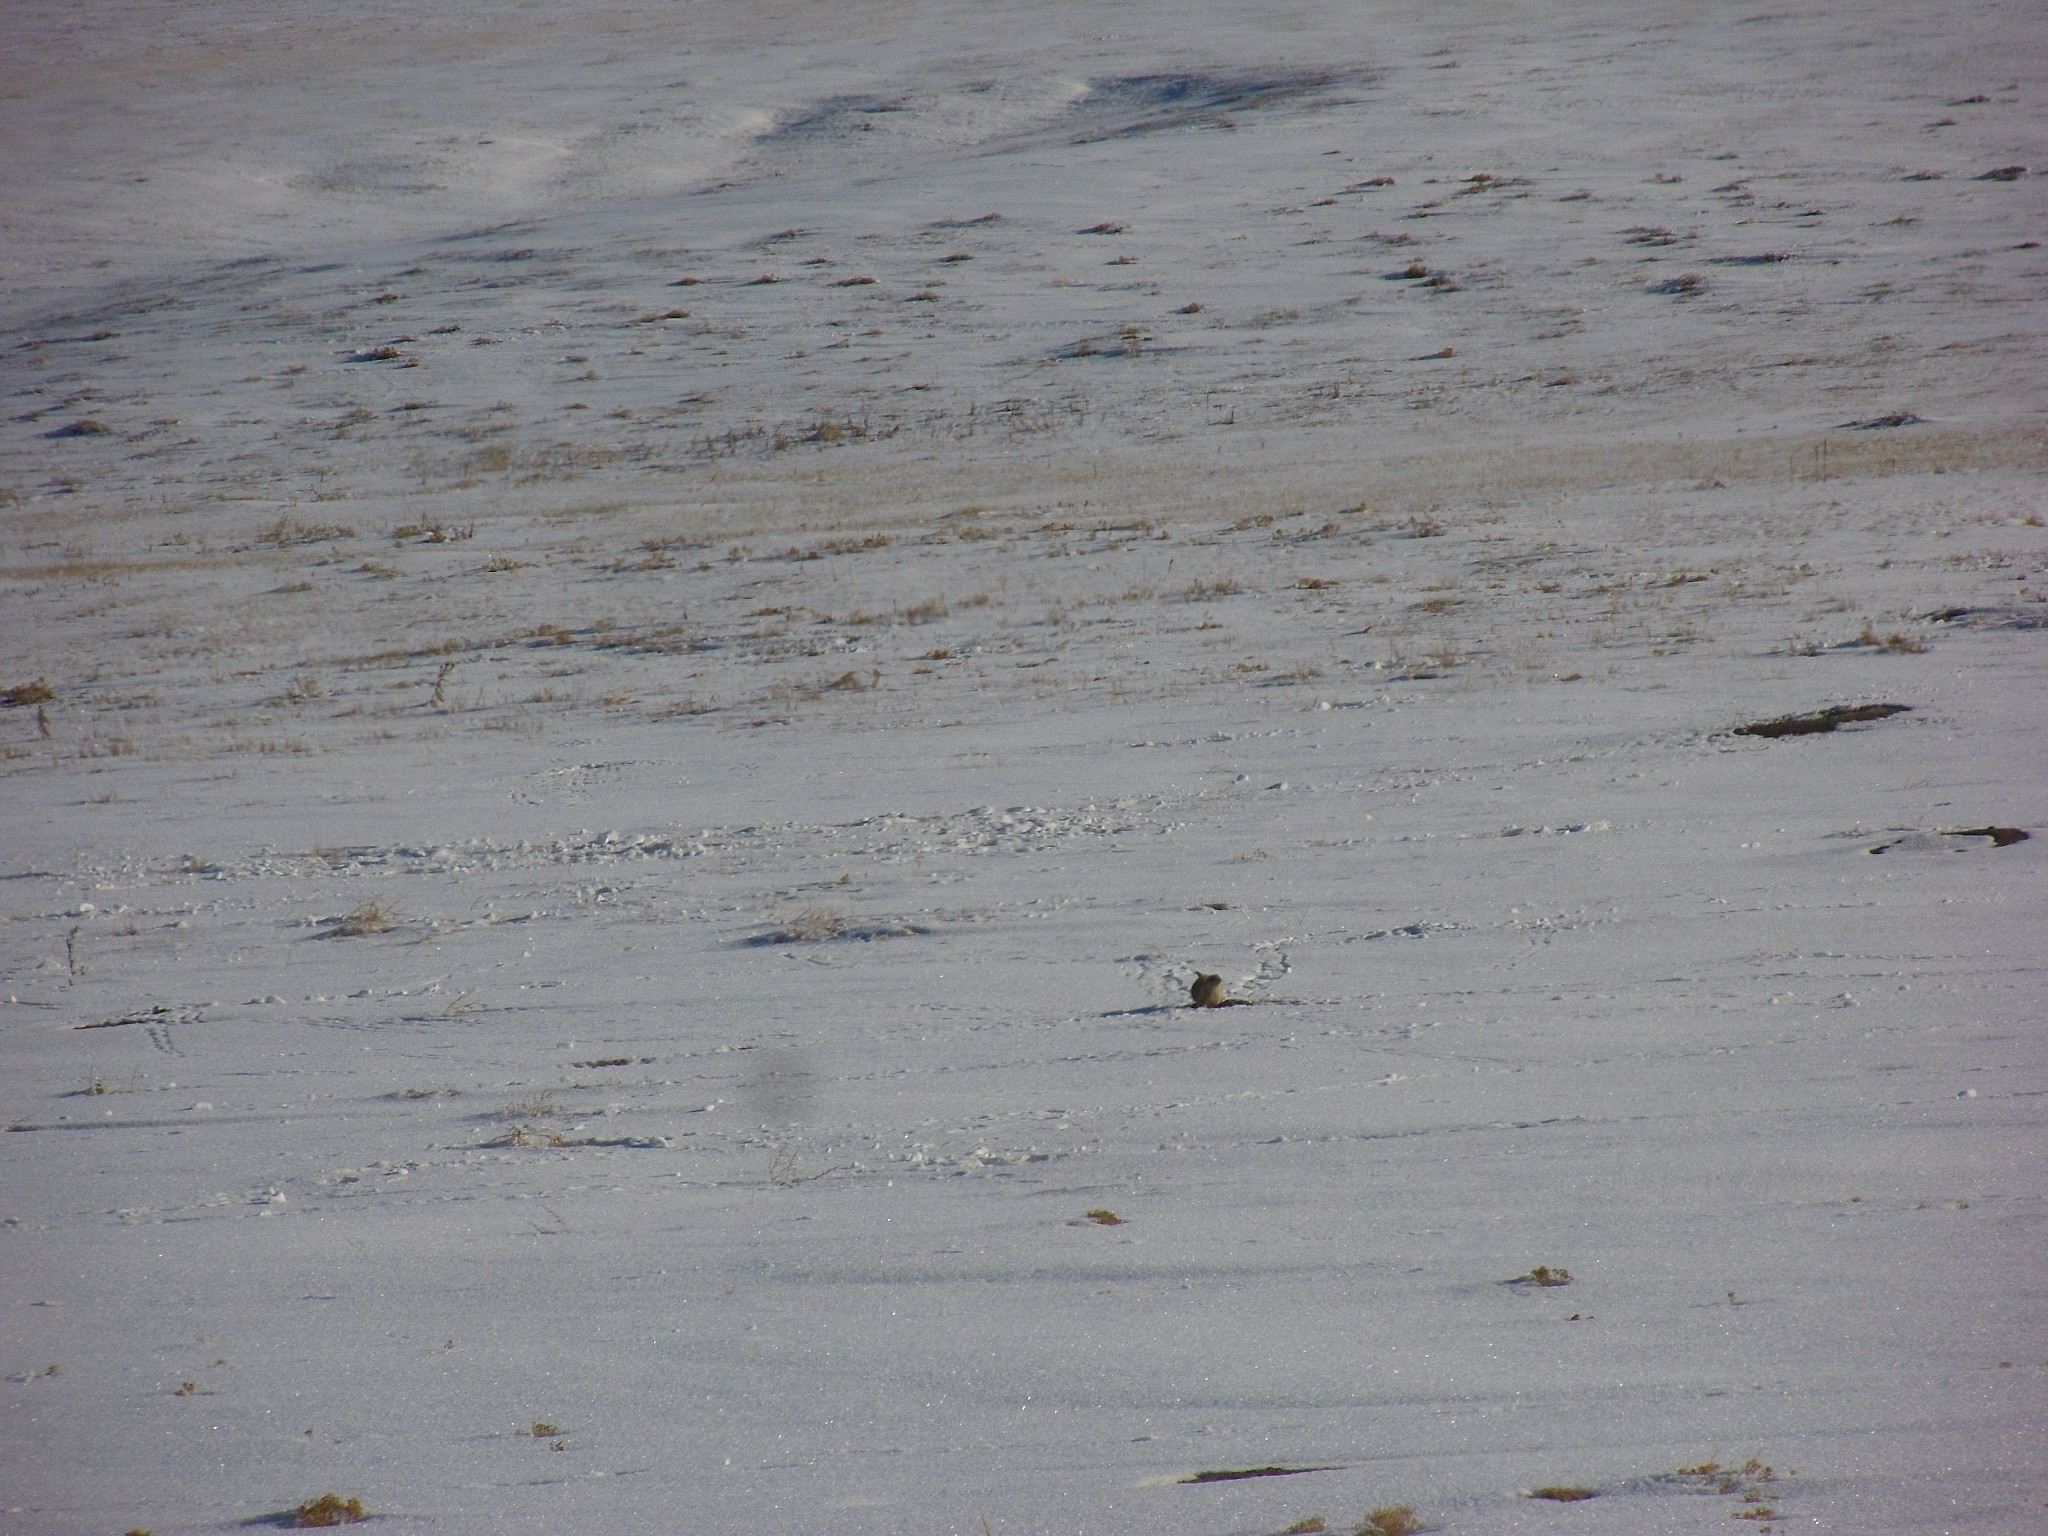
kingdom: Animalia
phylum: Chordata
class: Mammalia
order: Rodentia
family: Sciuridae
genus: Cynomys
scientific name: Cynomys ludovicianus
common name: Black-tailed prairie dog
